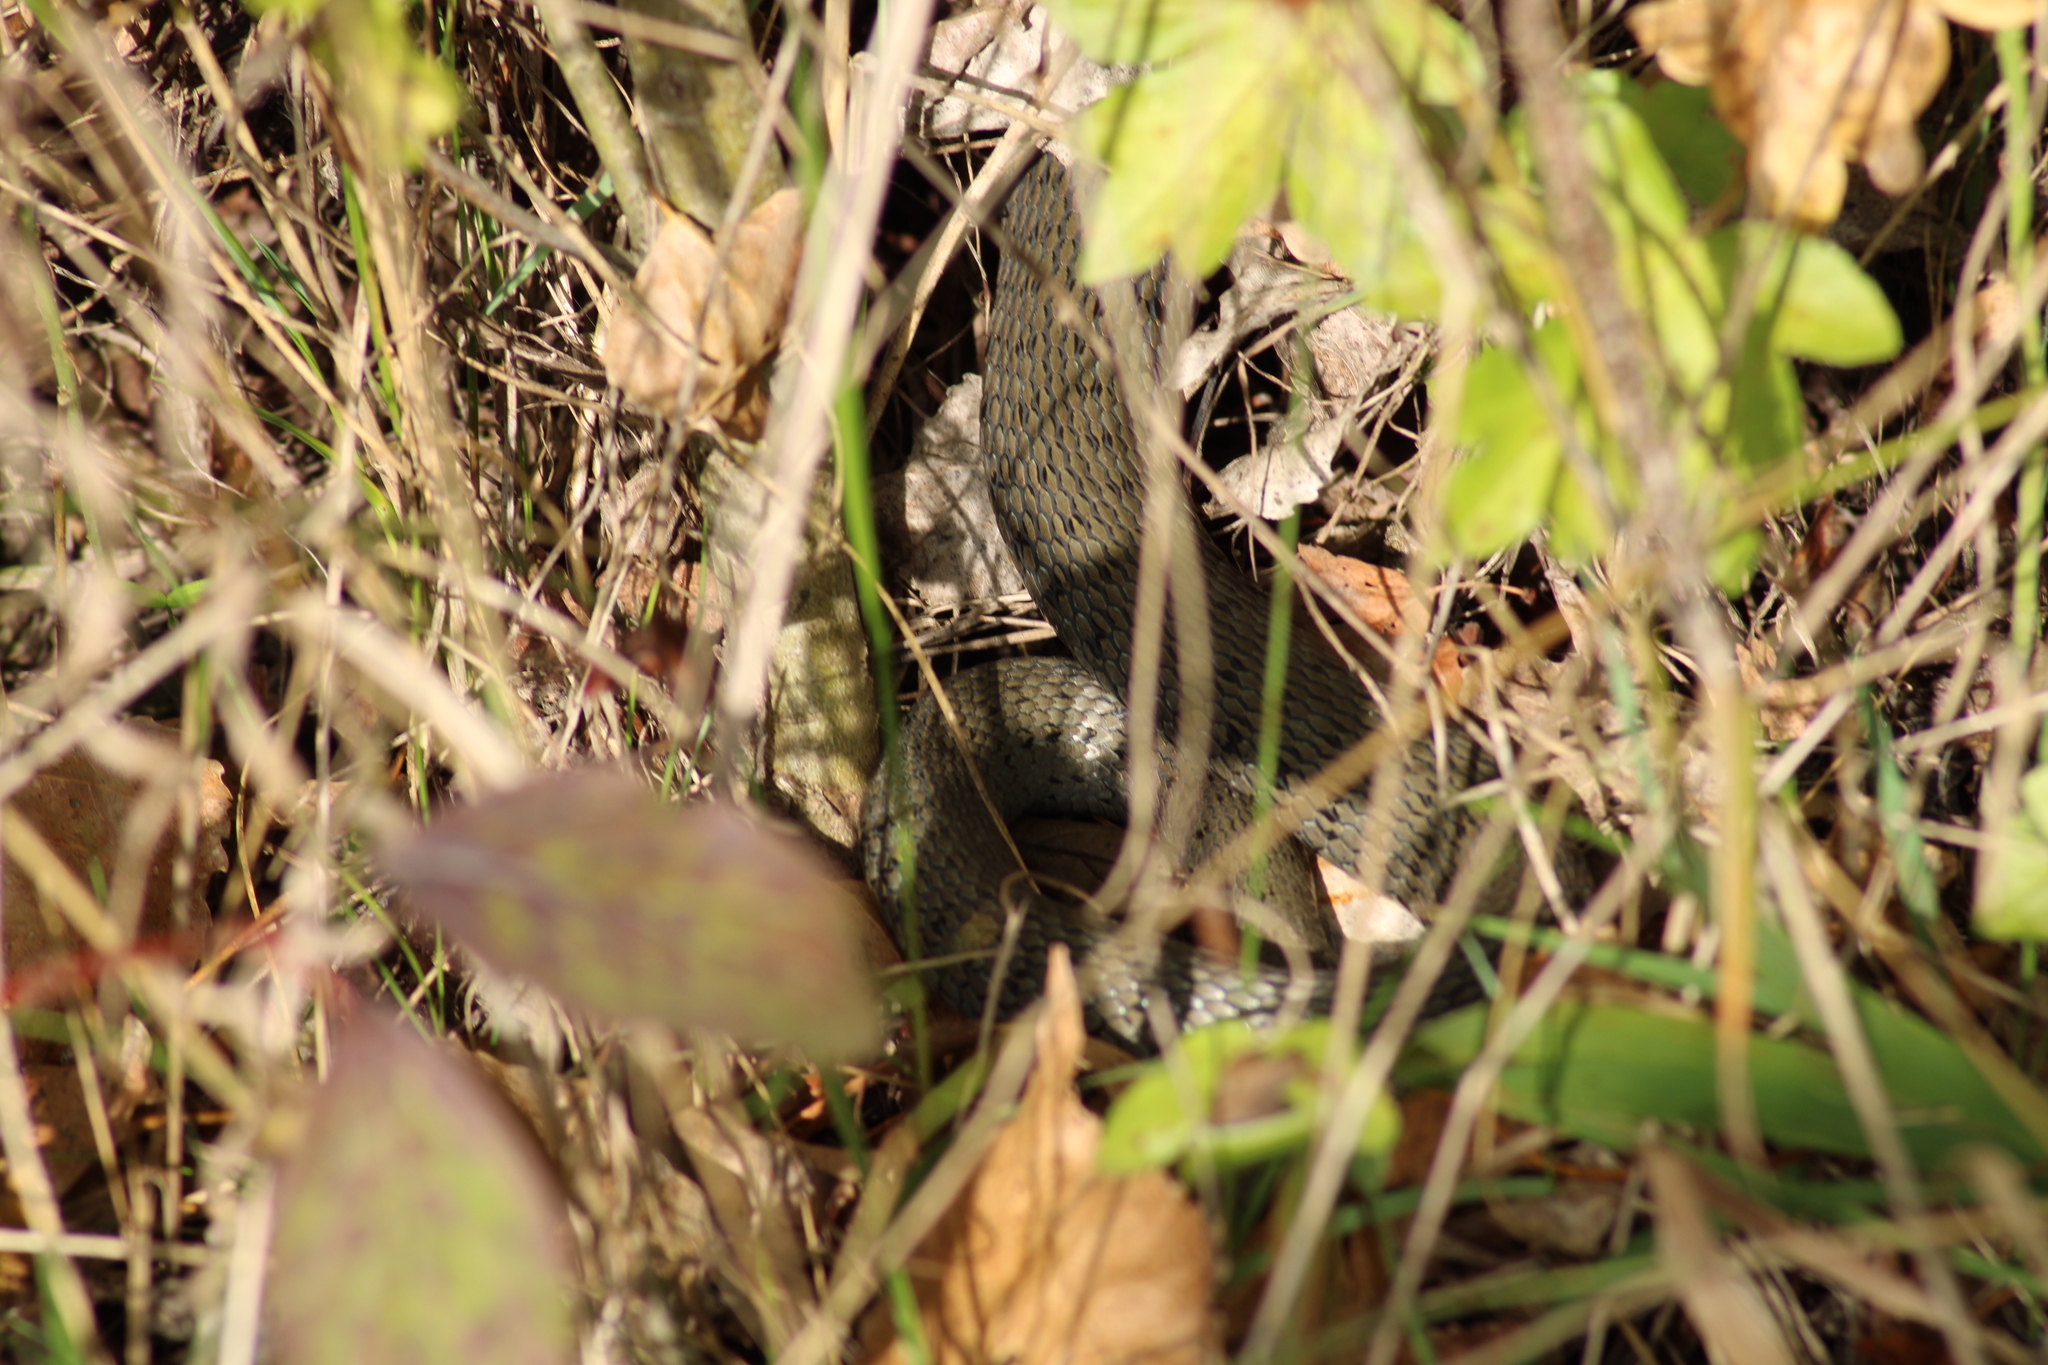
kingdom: Animalia
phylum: Chordata
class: Squamata
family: Colubridae
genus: Natrix
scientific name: Natrix natrix
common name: Grass snake
